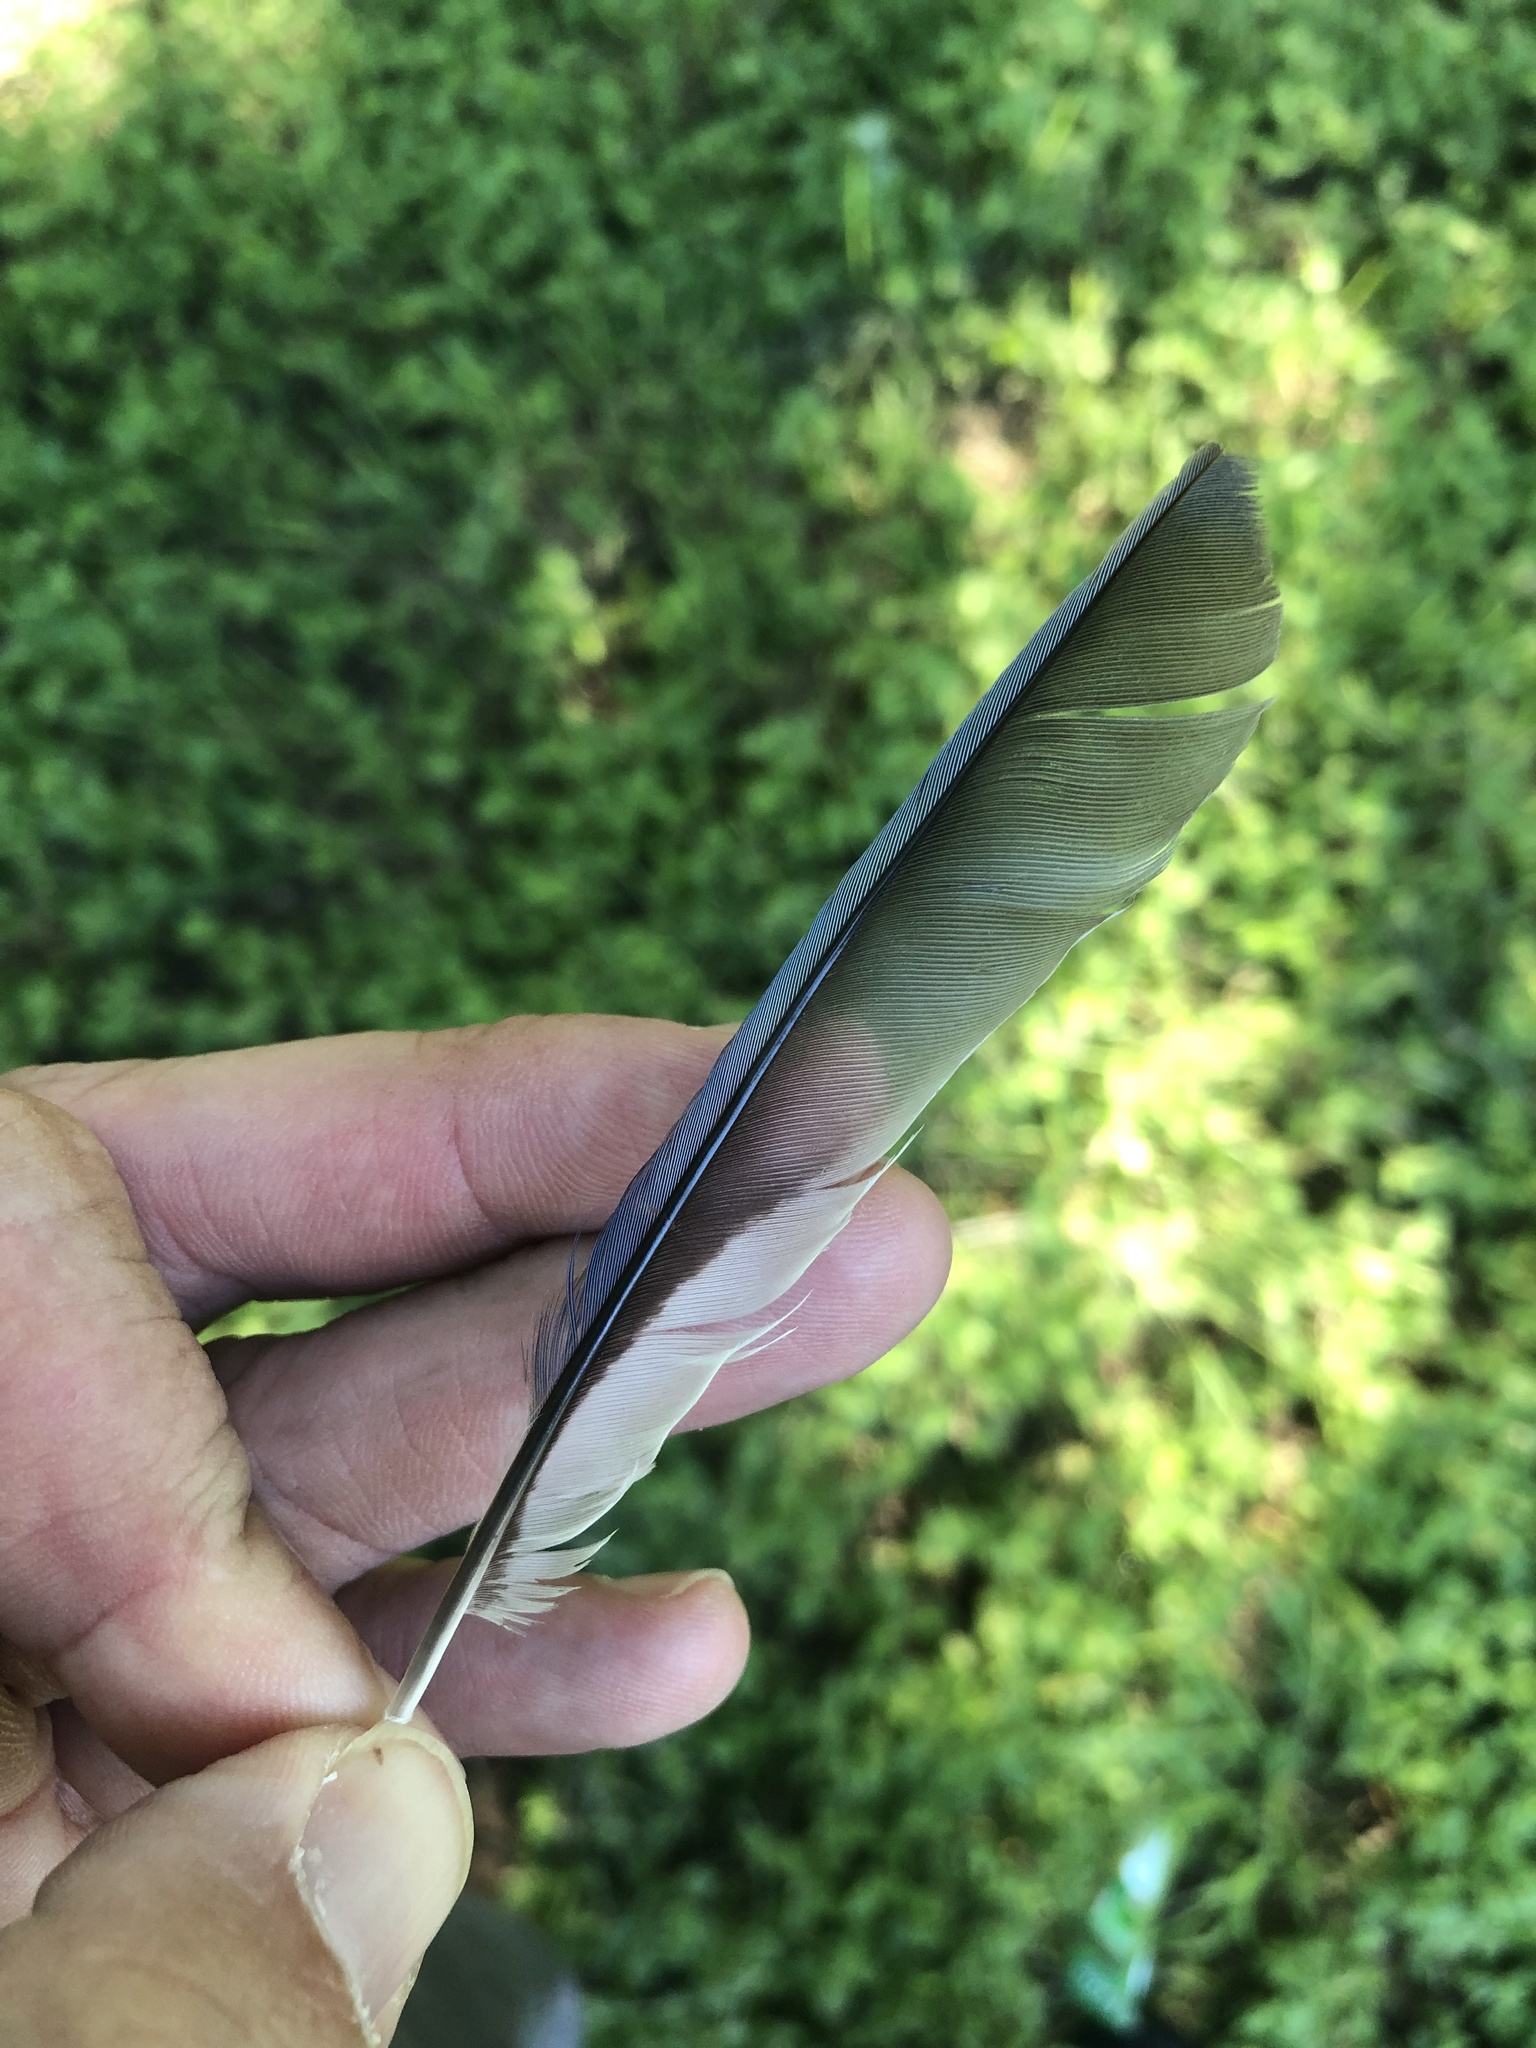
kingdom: Animalia
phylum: Chordata
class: Aves
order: Passeriformes
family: Corvidae
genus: Cyanocitta
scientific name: Cyanocitta cristata
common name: Blue jay
